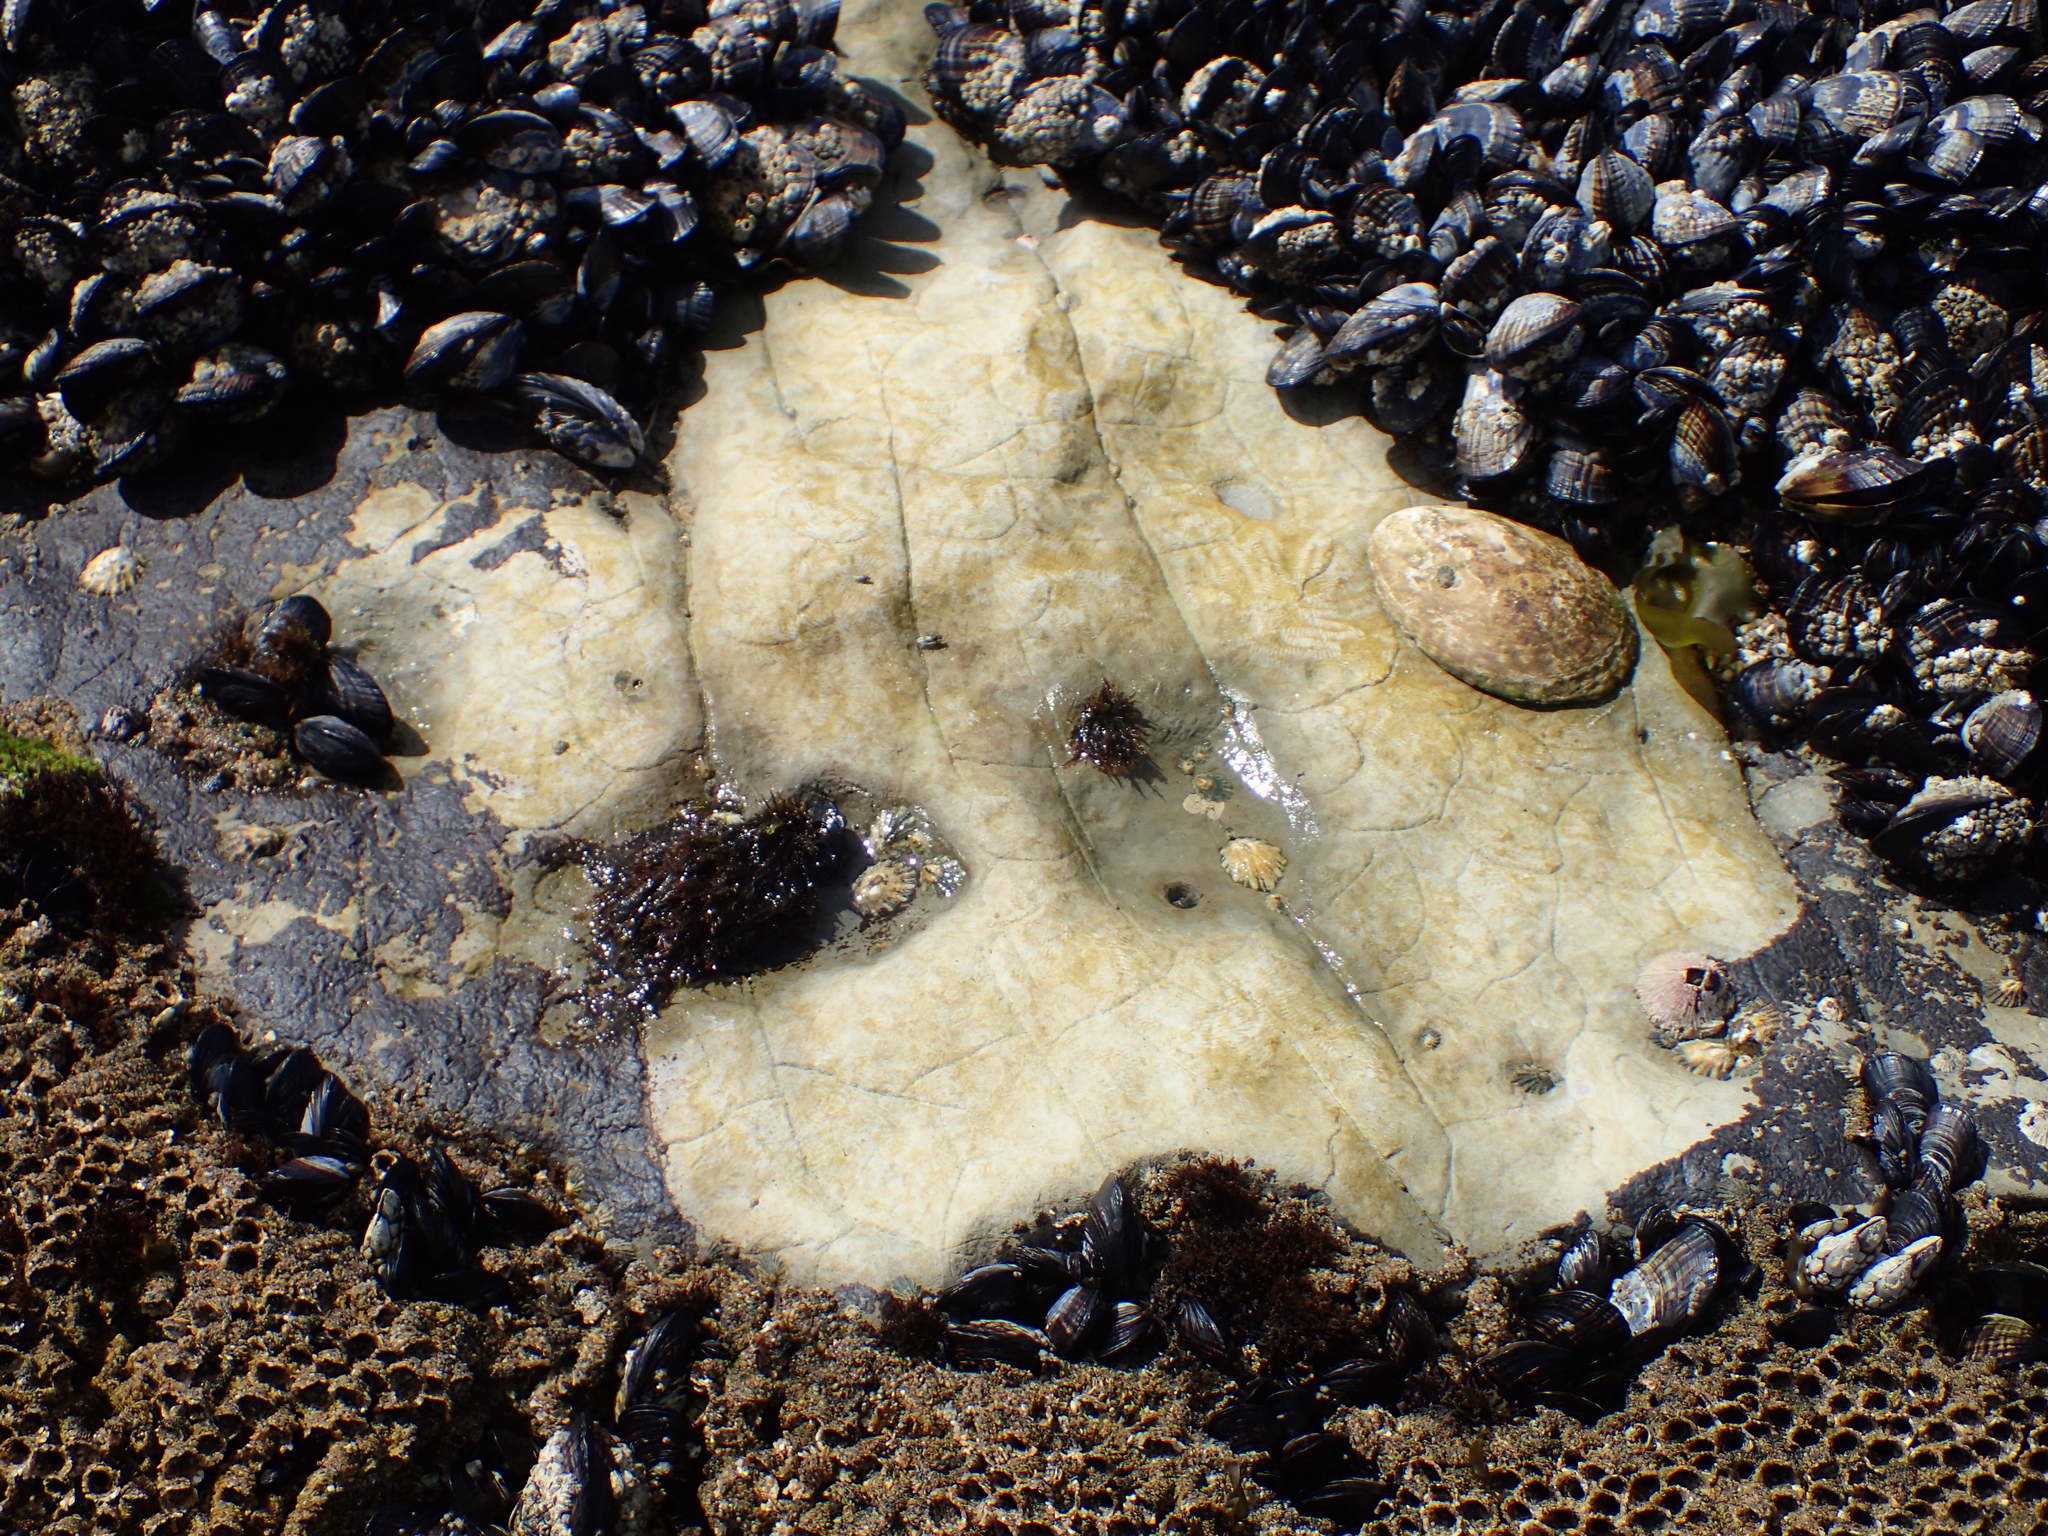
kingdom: Animalia
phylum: Mollusca
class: Gastropoda
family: Lottiidae
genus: Lottia
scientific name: Lottia gigantea
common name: Owl limpet
